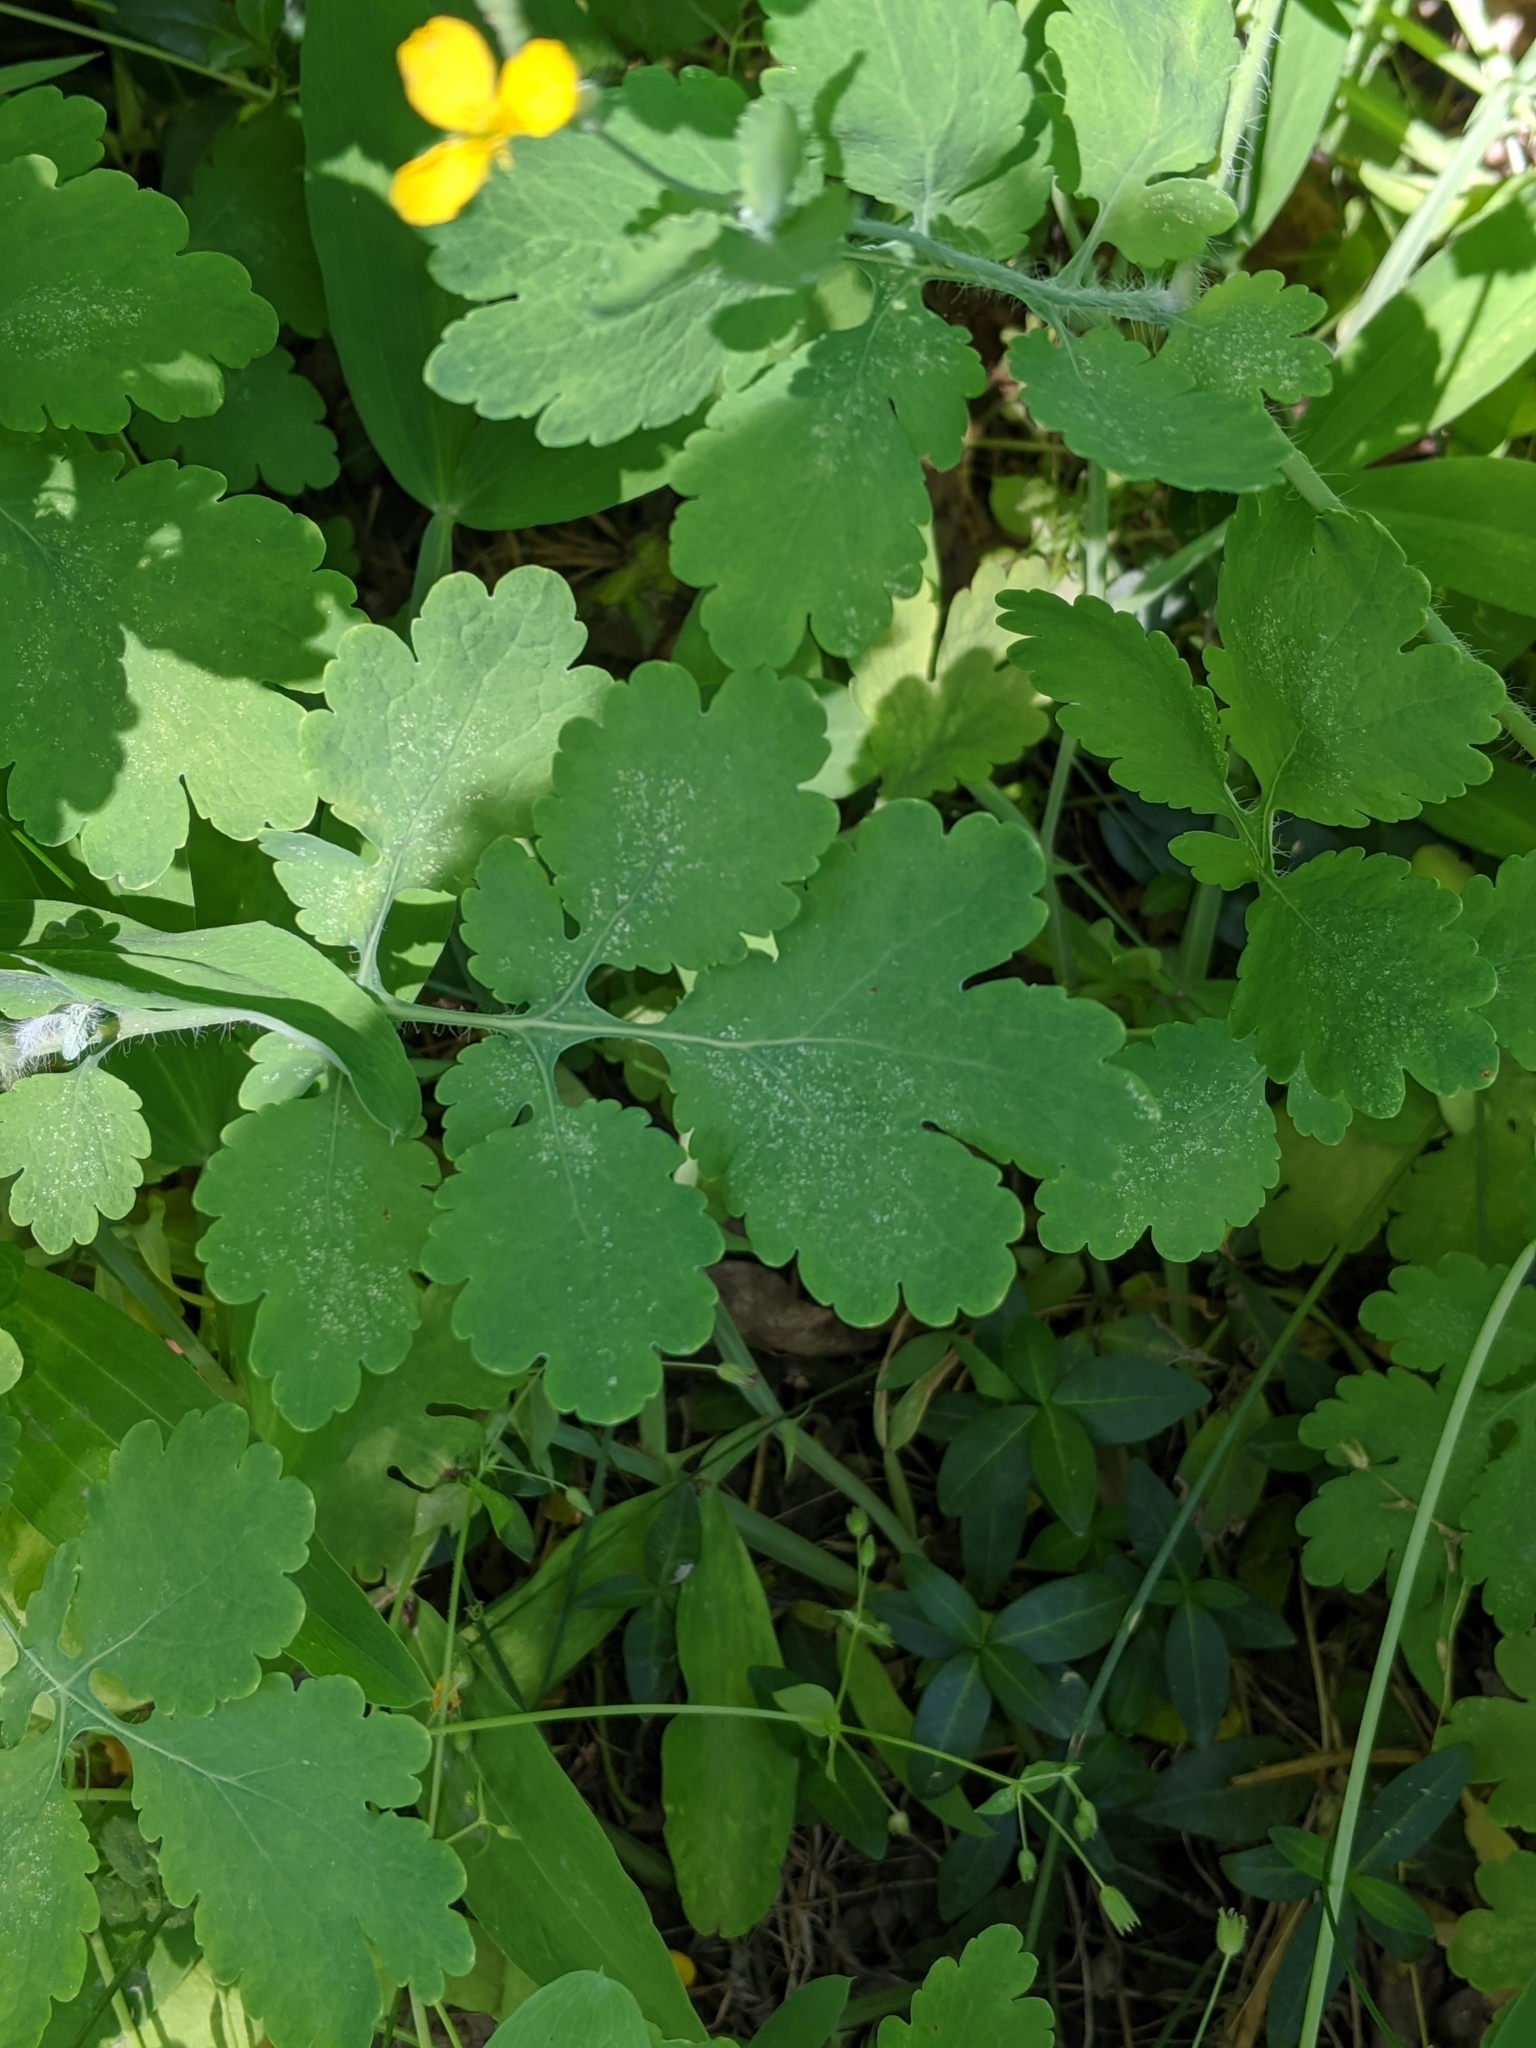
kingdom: Plantae
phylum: Tracheophyta
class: Magnoliopsida
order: Ranunculales
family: Papaveraceae
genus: Chelidonium
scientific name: Chelidonium majus
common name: Greater celandine
